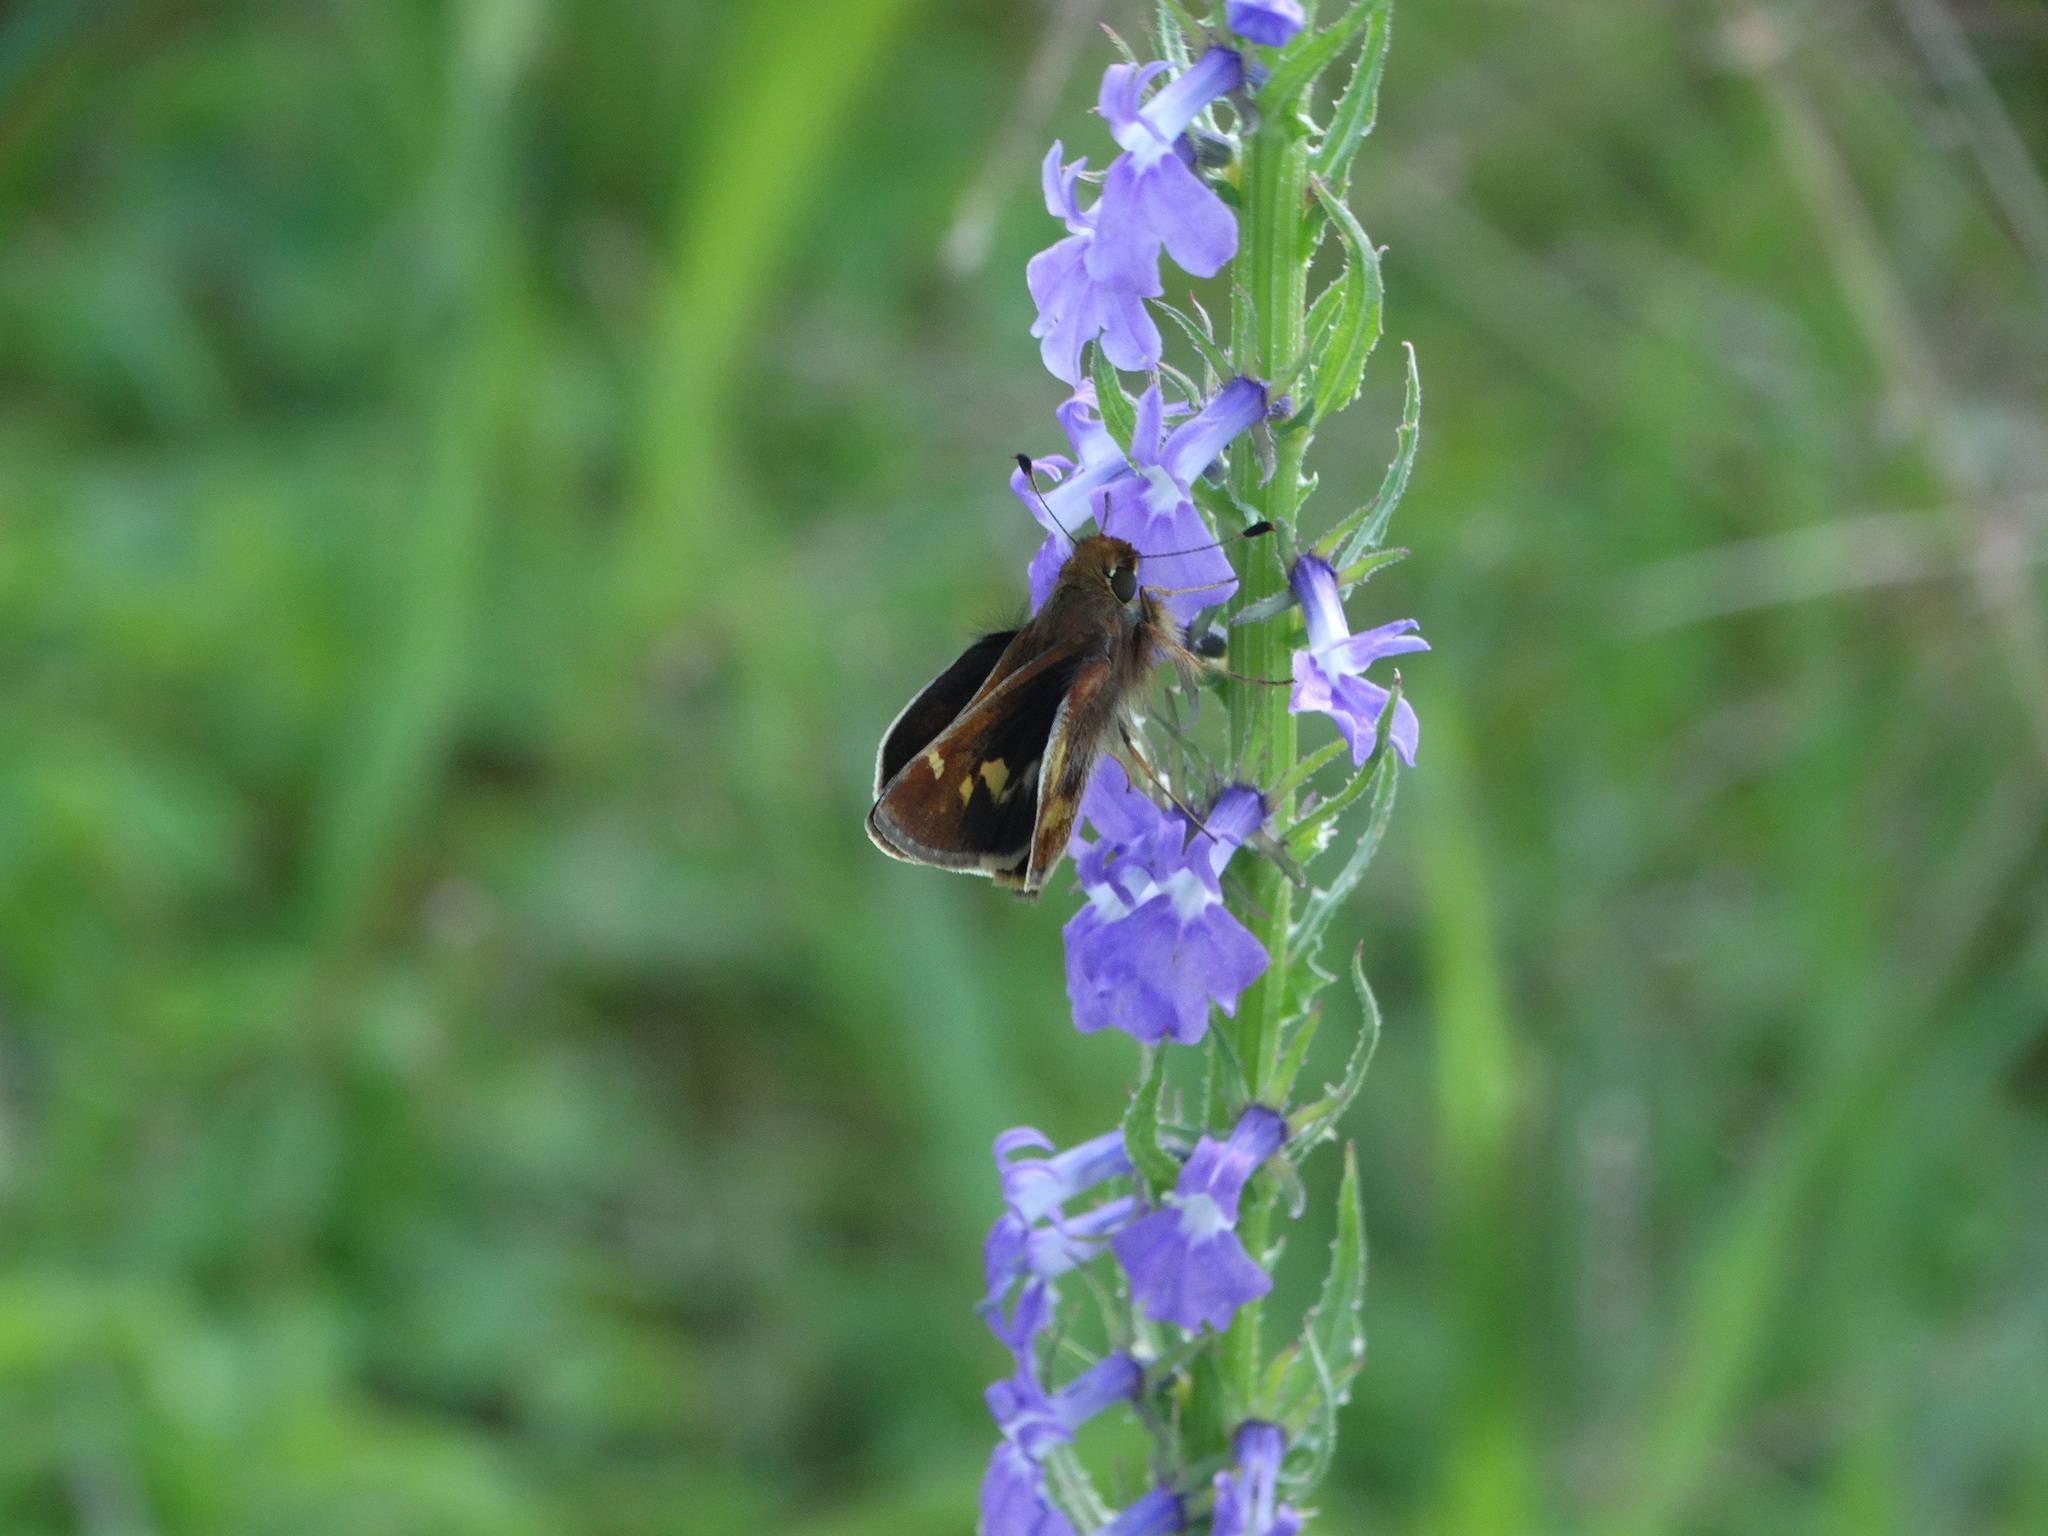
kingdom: Animalia
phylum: Arthropoda
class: Insecta
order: Lepidoptera
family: Hesperiidae
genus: Lon
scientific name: Lon
